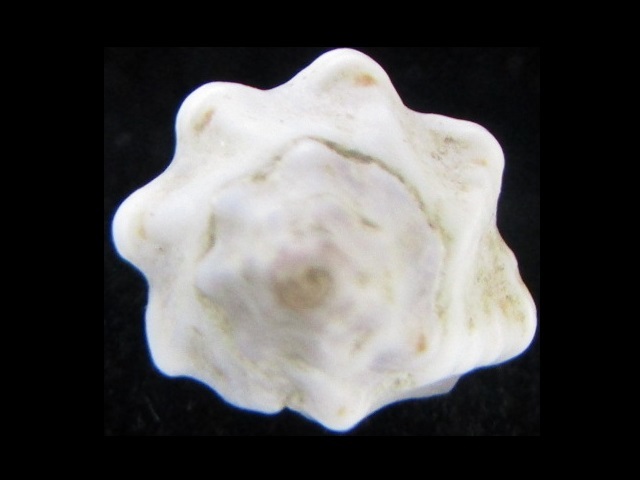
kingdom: Animalia
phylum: Mollusca
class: Gastropoda
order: Neogastropoda
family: Muricidae
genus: Pascula
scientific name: Pascula ochrostoma
